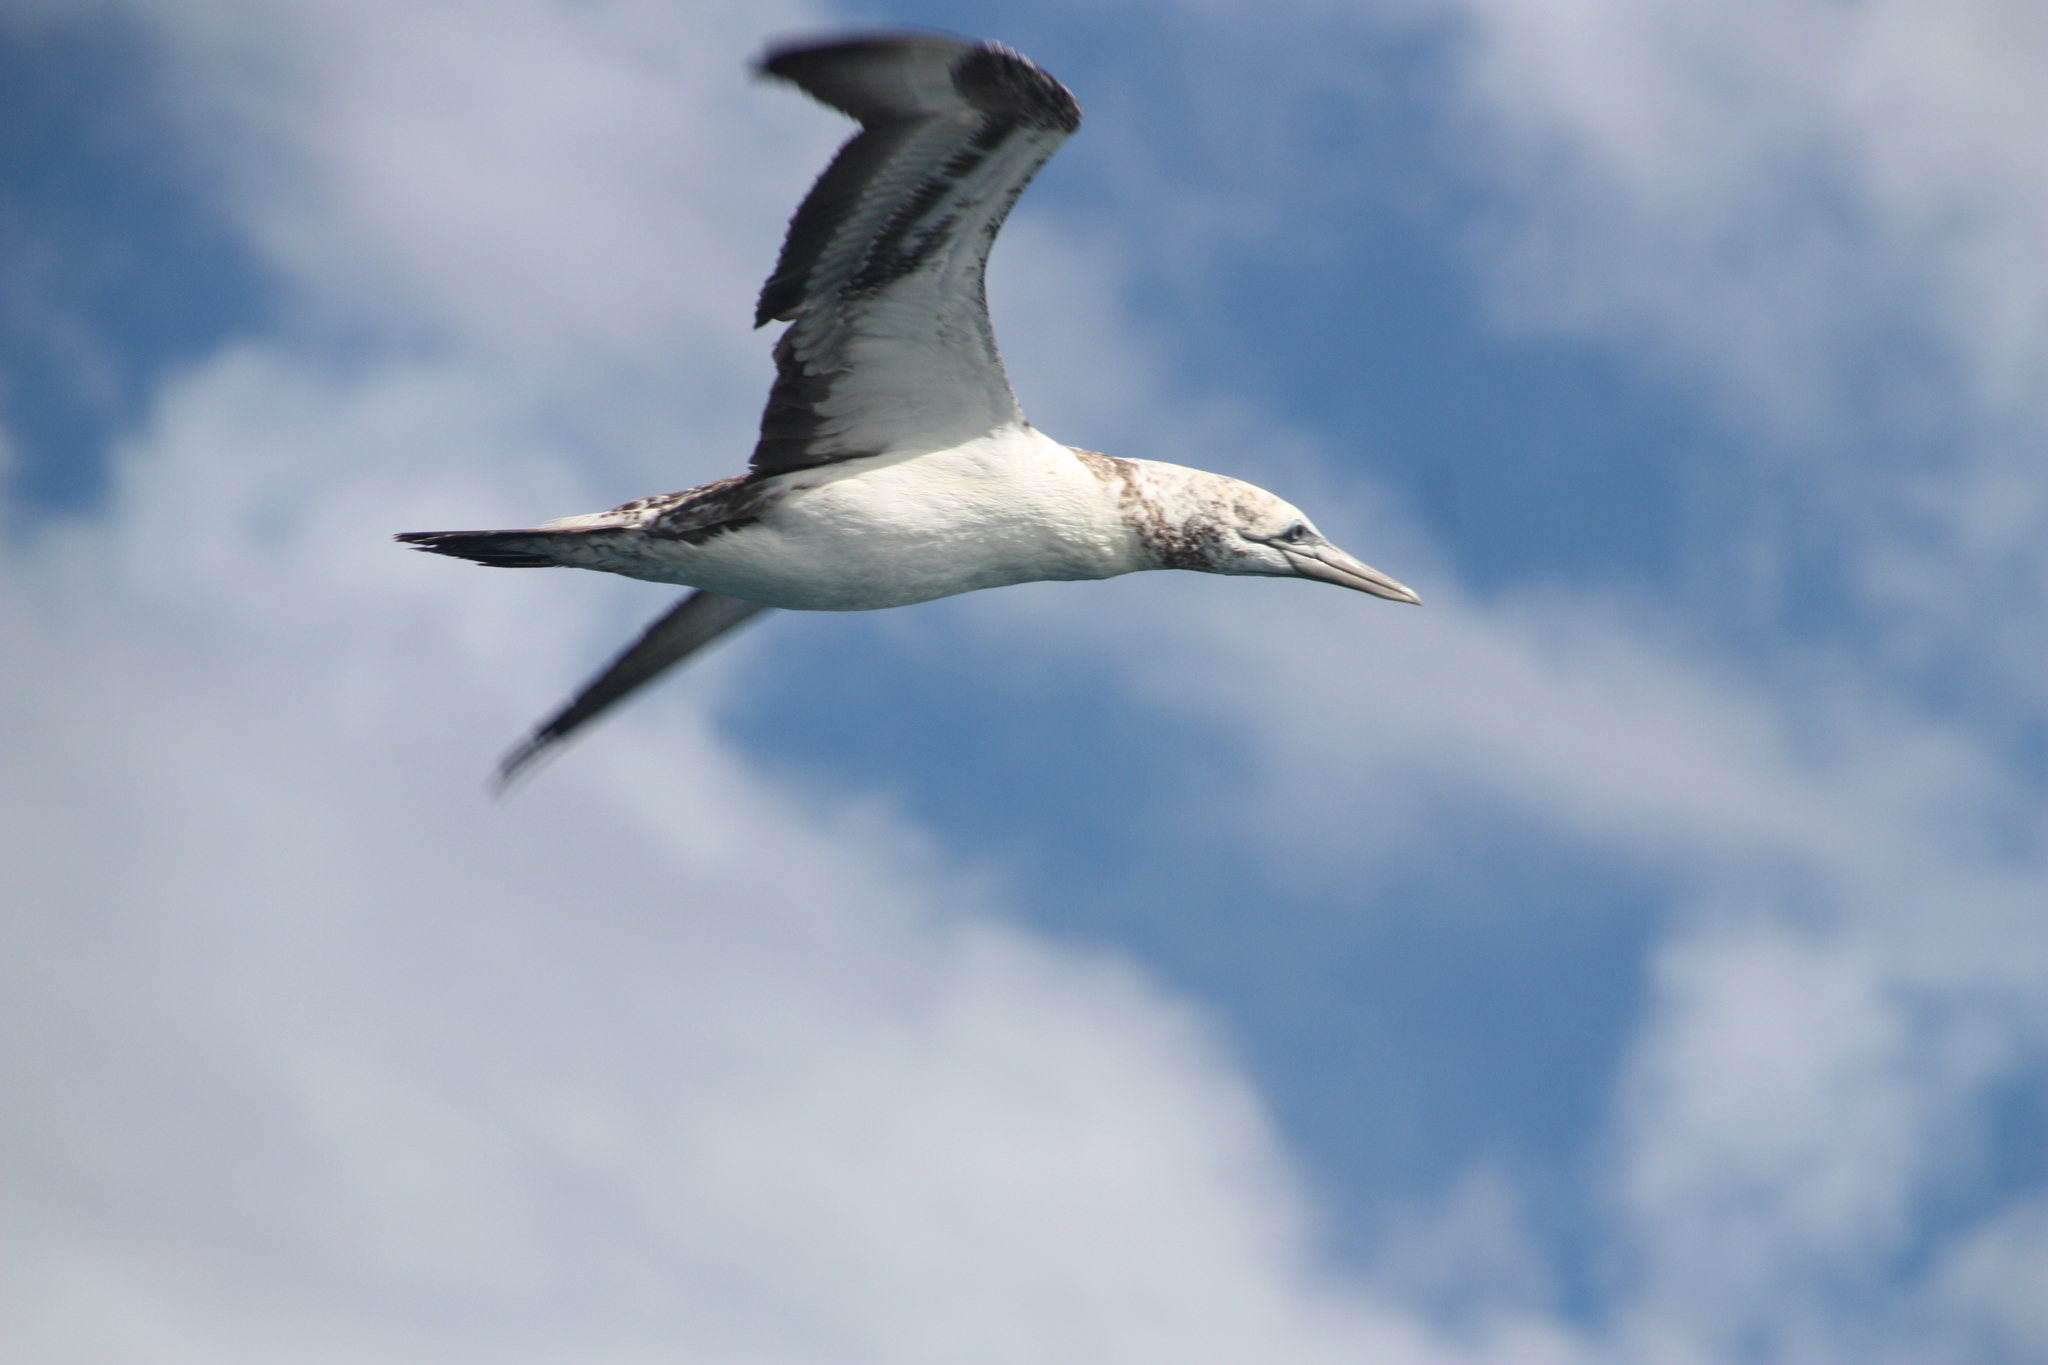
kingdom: Animalia
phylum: Chordata
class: Aves
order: Suliformes
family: Sulidae
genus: Morus
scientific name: Morus serrator
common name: Australasian gannet
